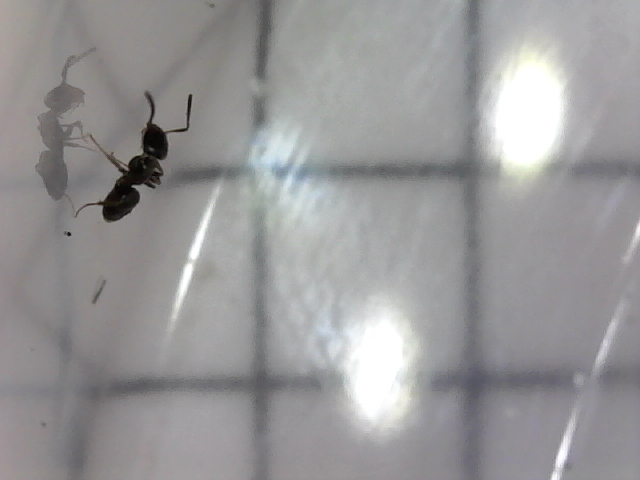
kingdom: Animalia
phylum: Arthropoda
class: Insecta
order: Hymenoptera
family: Formicidae
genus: Tapinoma
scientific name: Tapinoma sessile
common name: Odorous house ant
